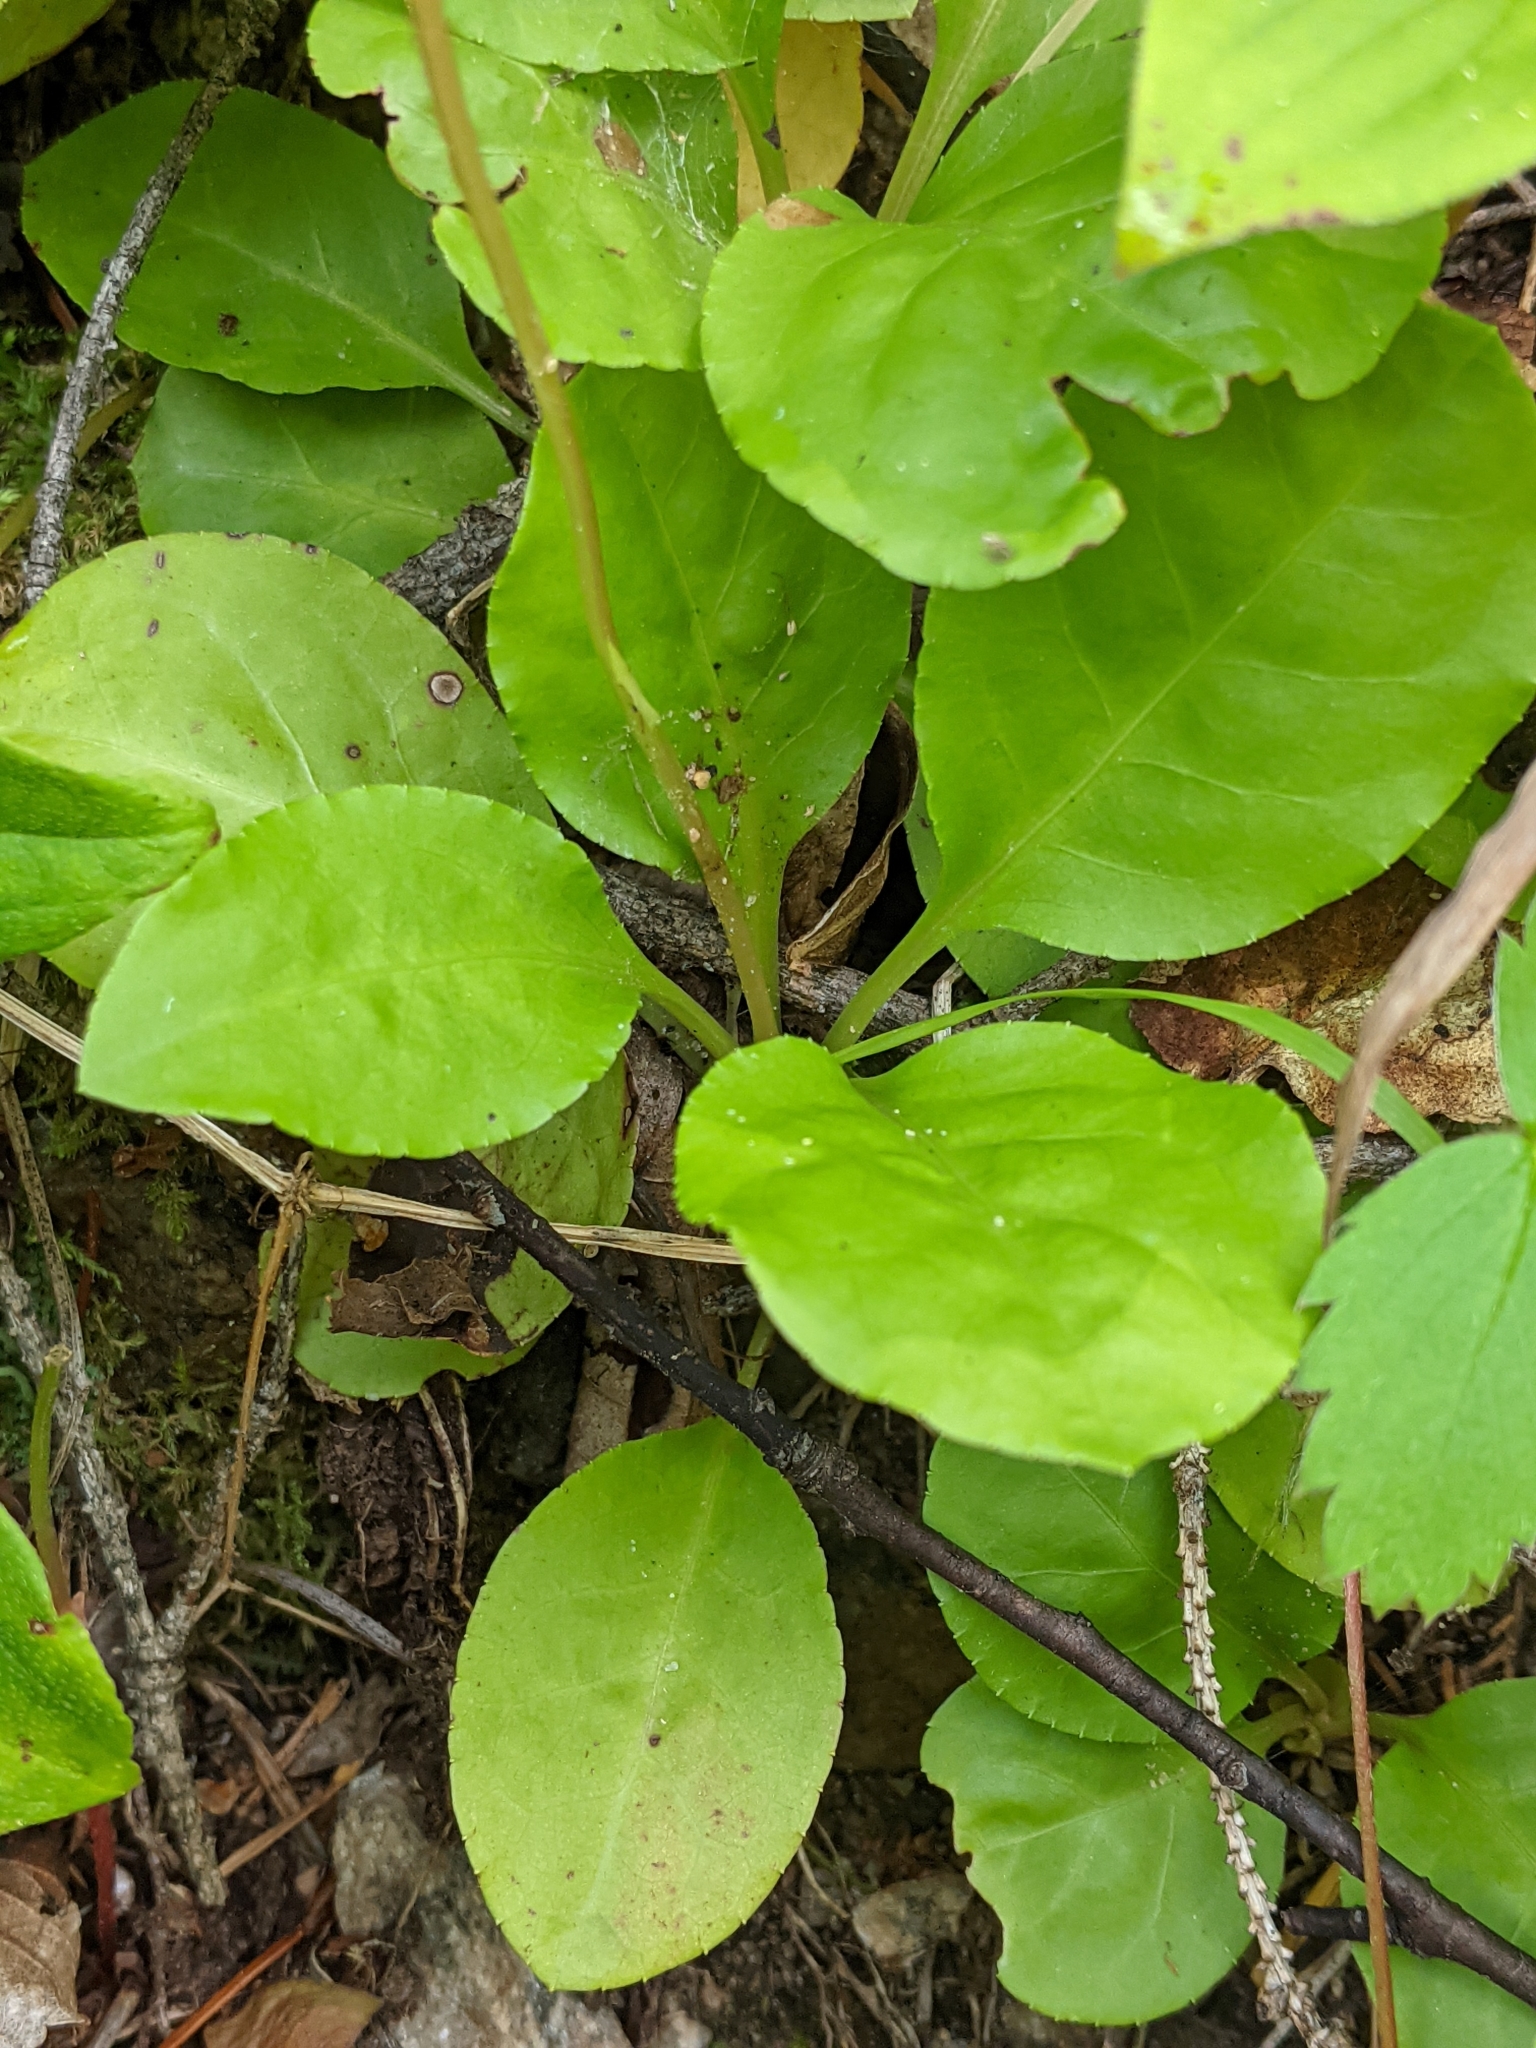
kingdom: Plantae
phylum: Tracheophyta
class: Magnoliopsida
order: Ericales
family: Ericaceae
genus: Pyrola
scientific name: Pyrola elliptica
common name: Shinleaf
